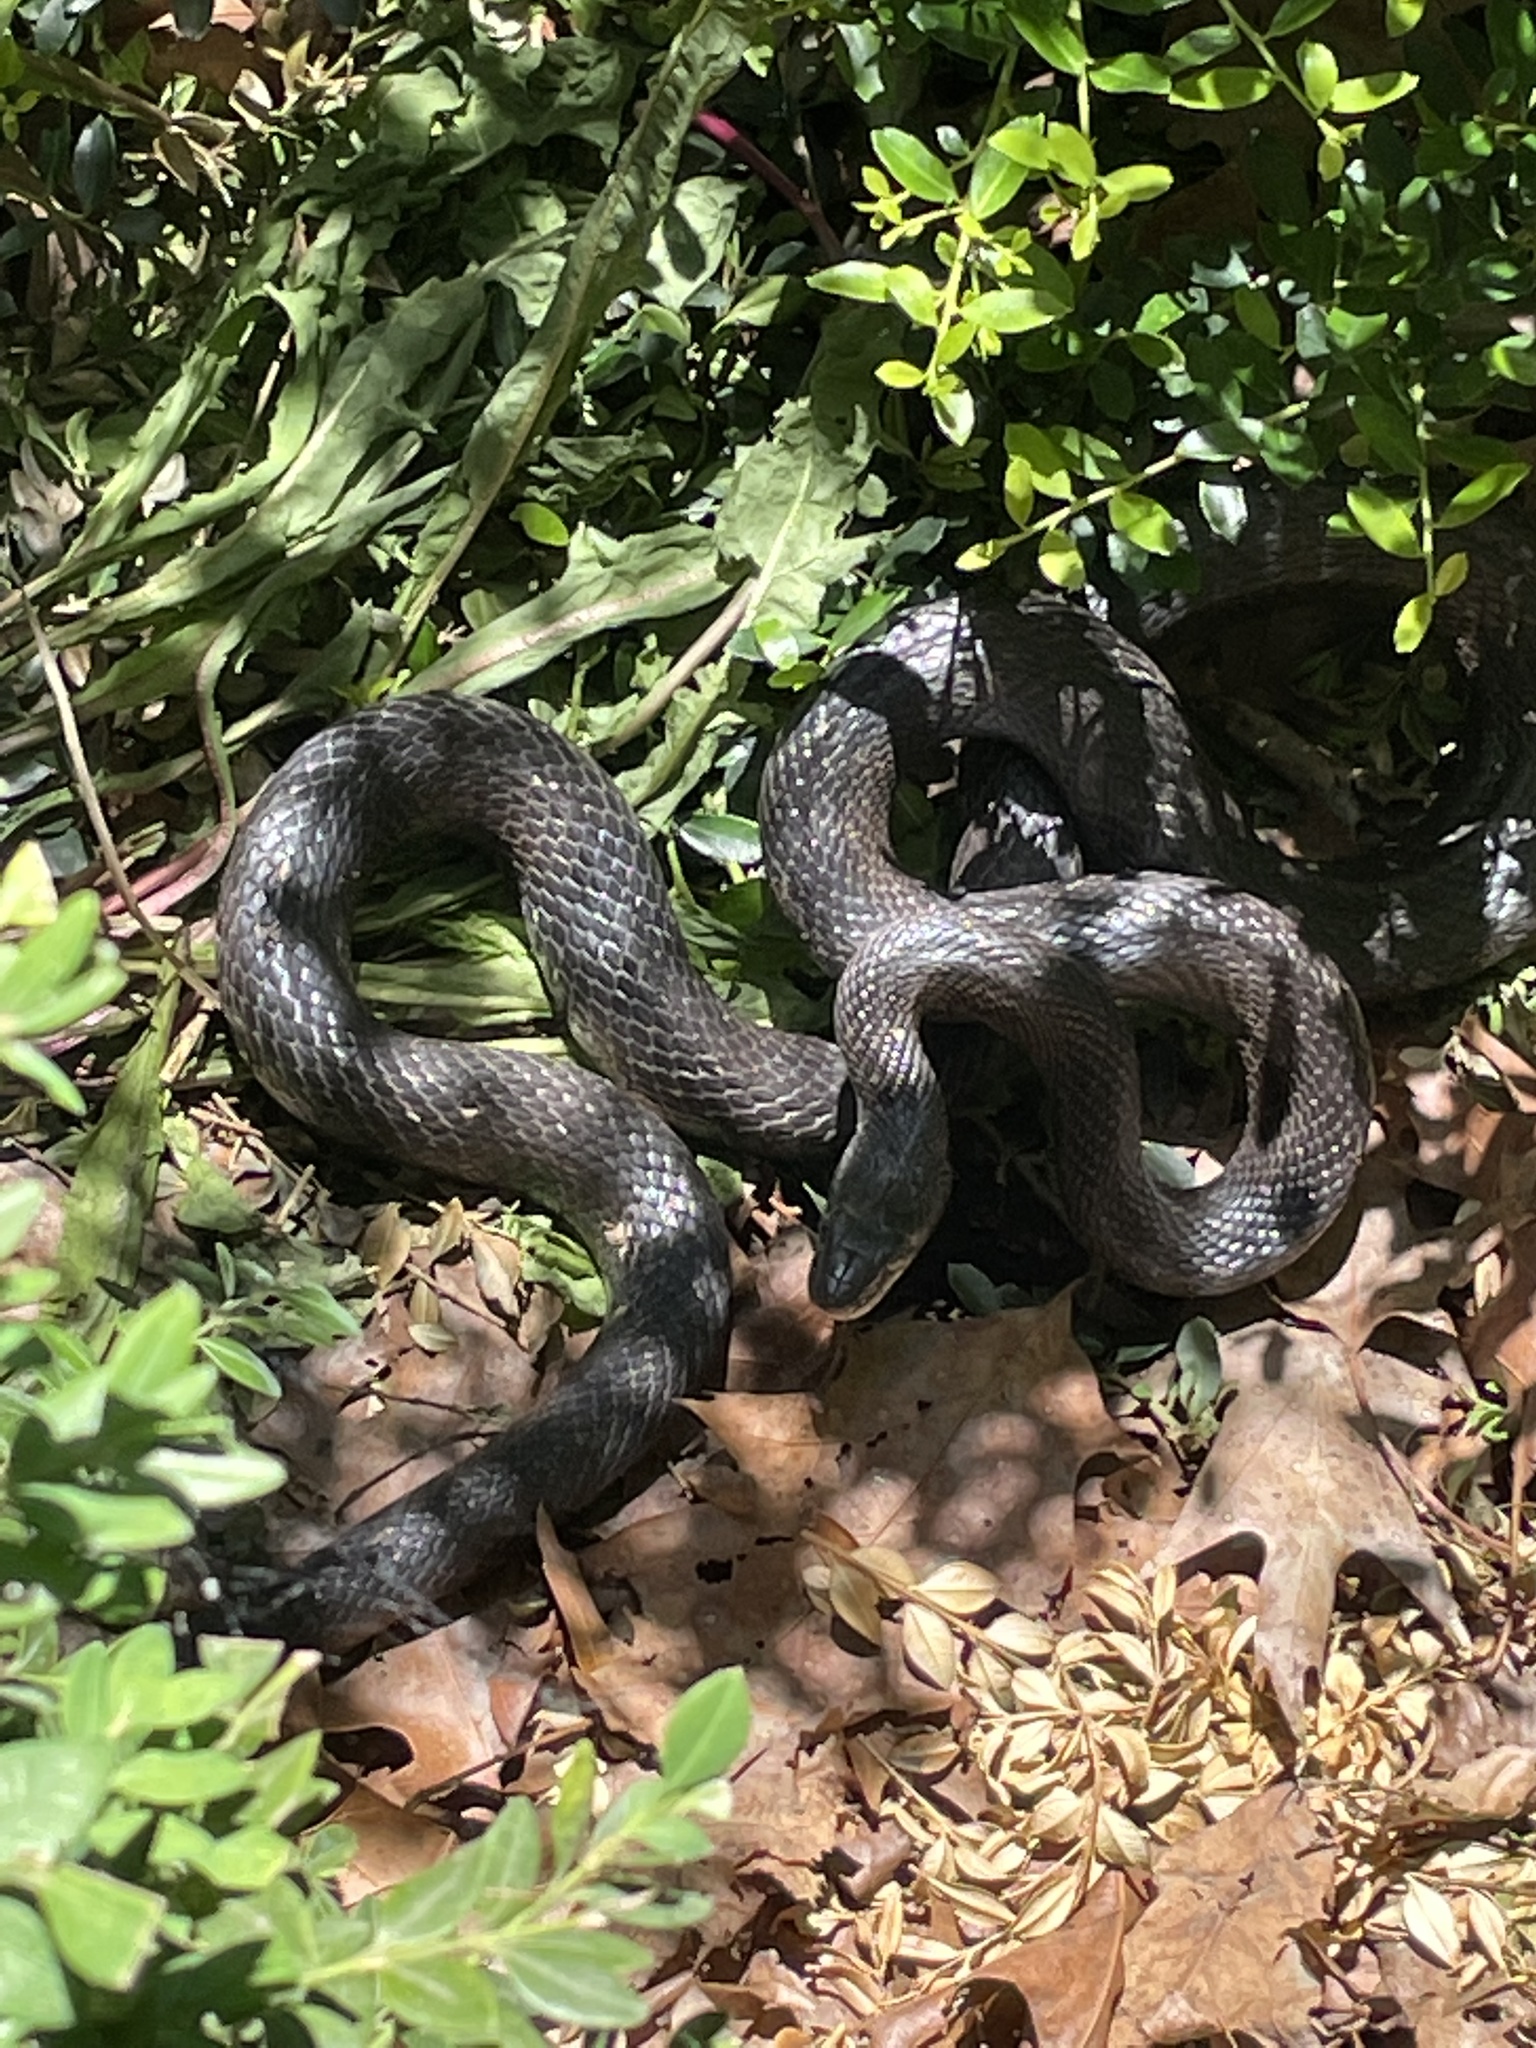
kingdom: Animalia
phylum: Chordata
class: Squamata
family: Colubridae
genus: Pantherophis
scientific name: Pantherophis alleghaniensis
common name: Eastern rat snake
